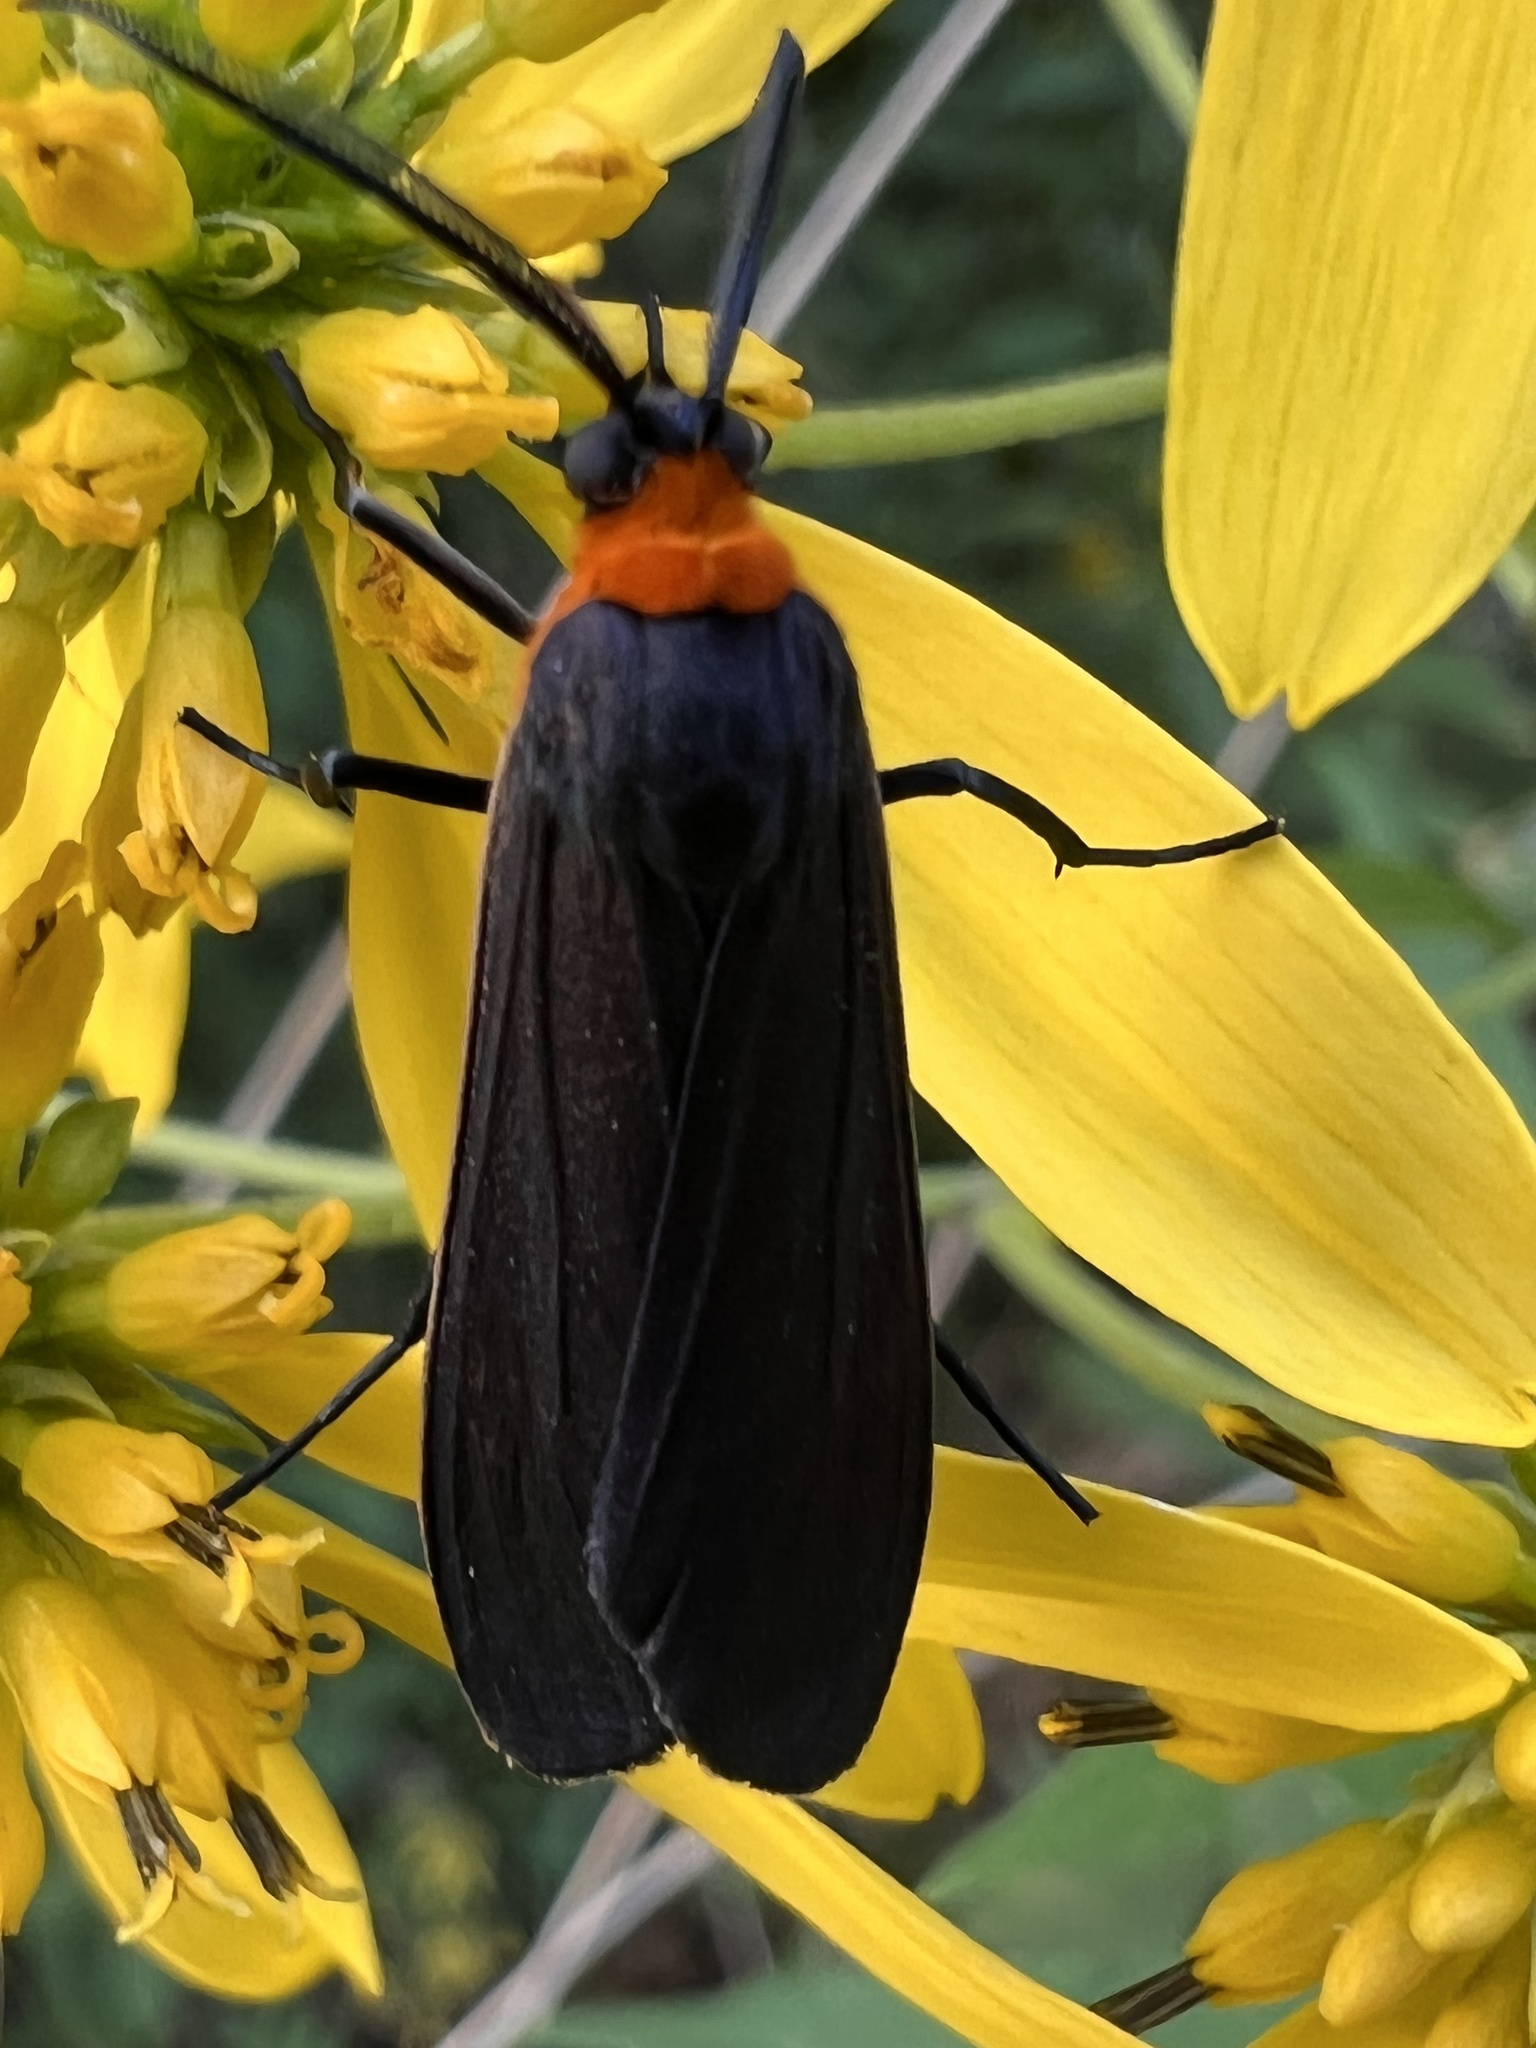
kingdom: Animalia
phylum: Arthropoda
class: Insecta
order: Lepidoptera
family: Erebidae
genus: Cisseps
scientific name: Cisseps fulvicollis
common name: Yellow-collared scape moth
